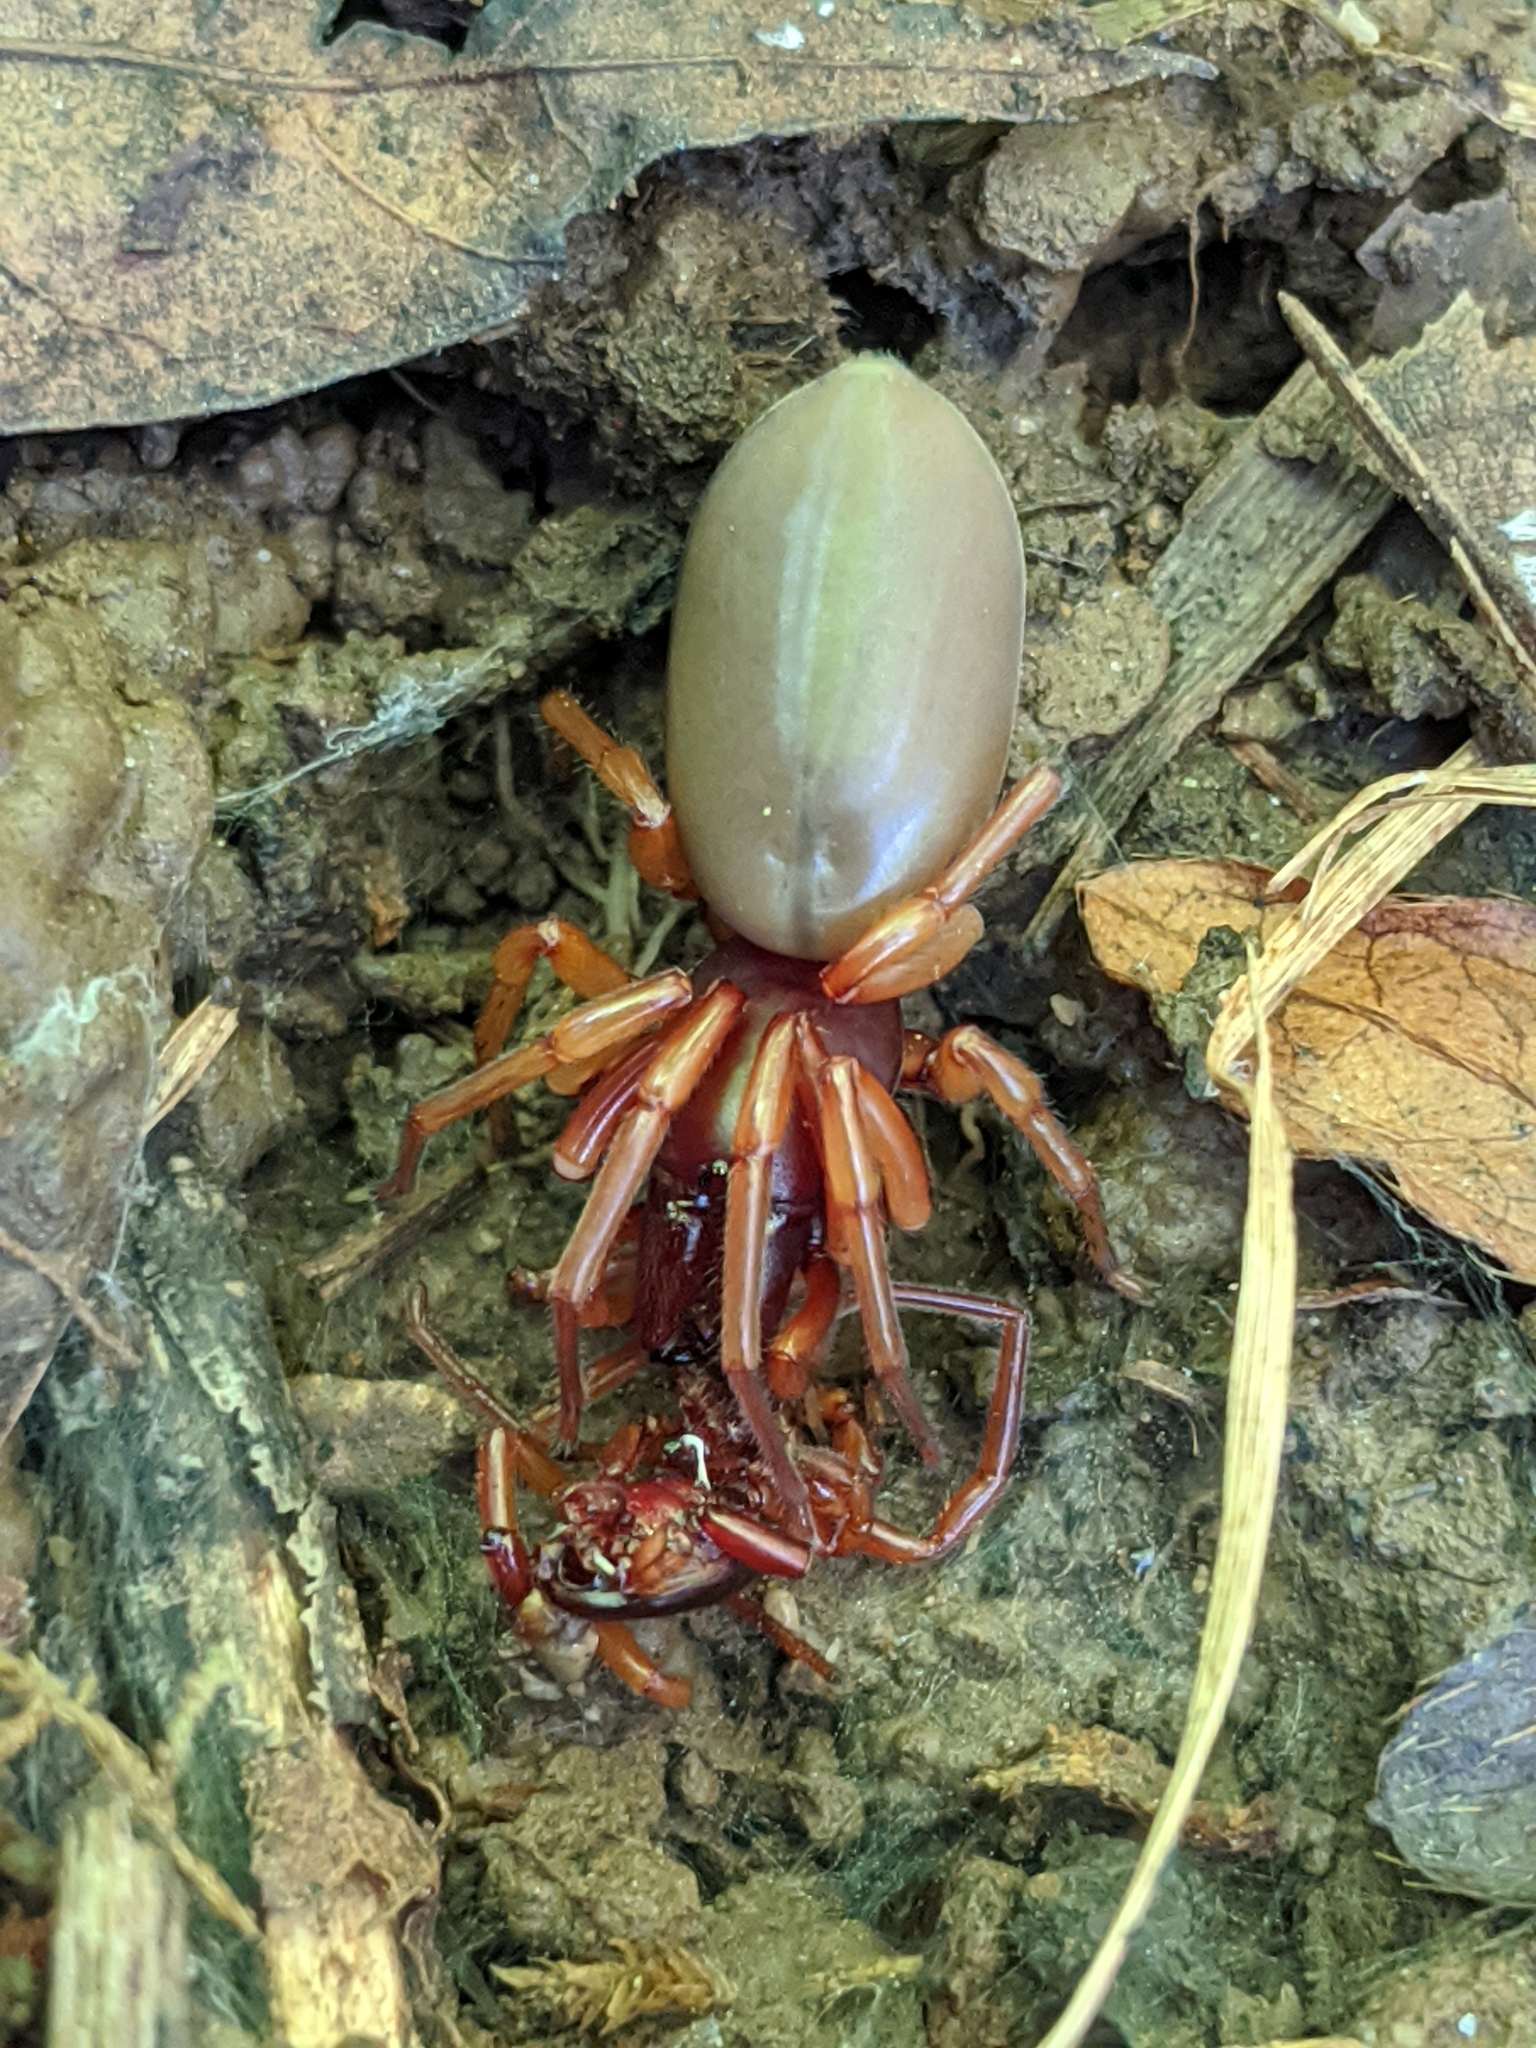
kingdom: Animalia
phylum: Arthropoda
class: Arachnida
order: Araneae
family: Dysderidae
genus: Dysdera
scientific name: Dysdera crocata
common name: Woodlouse spider
